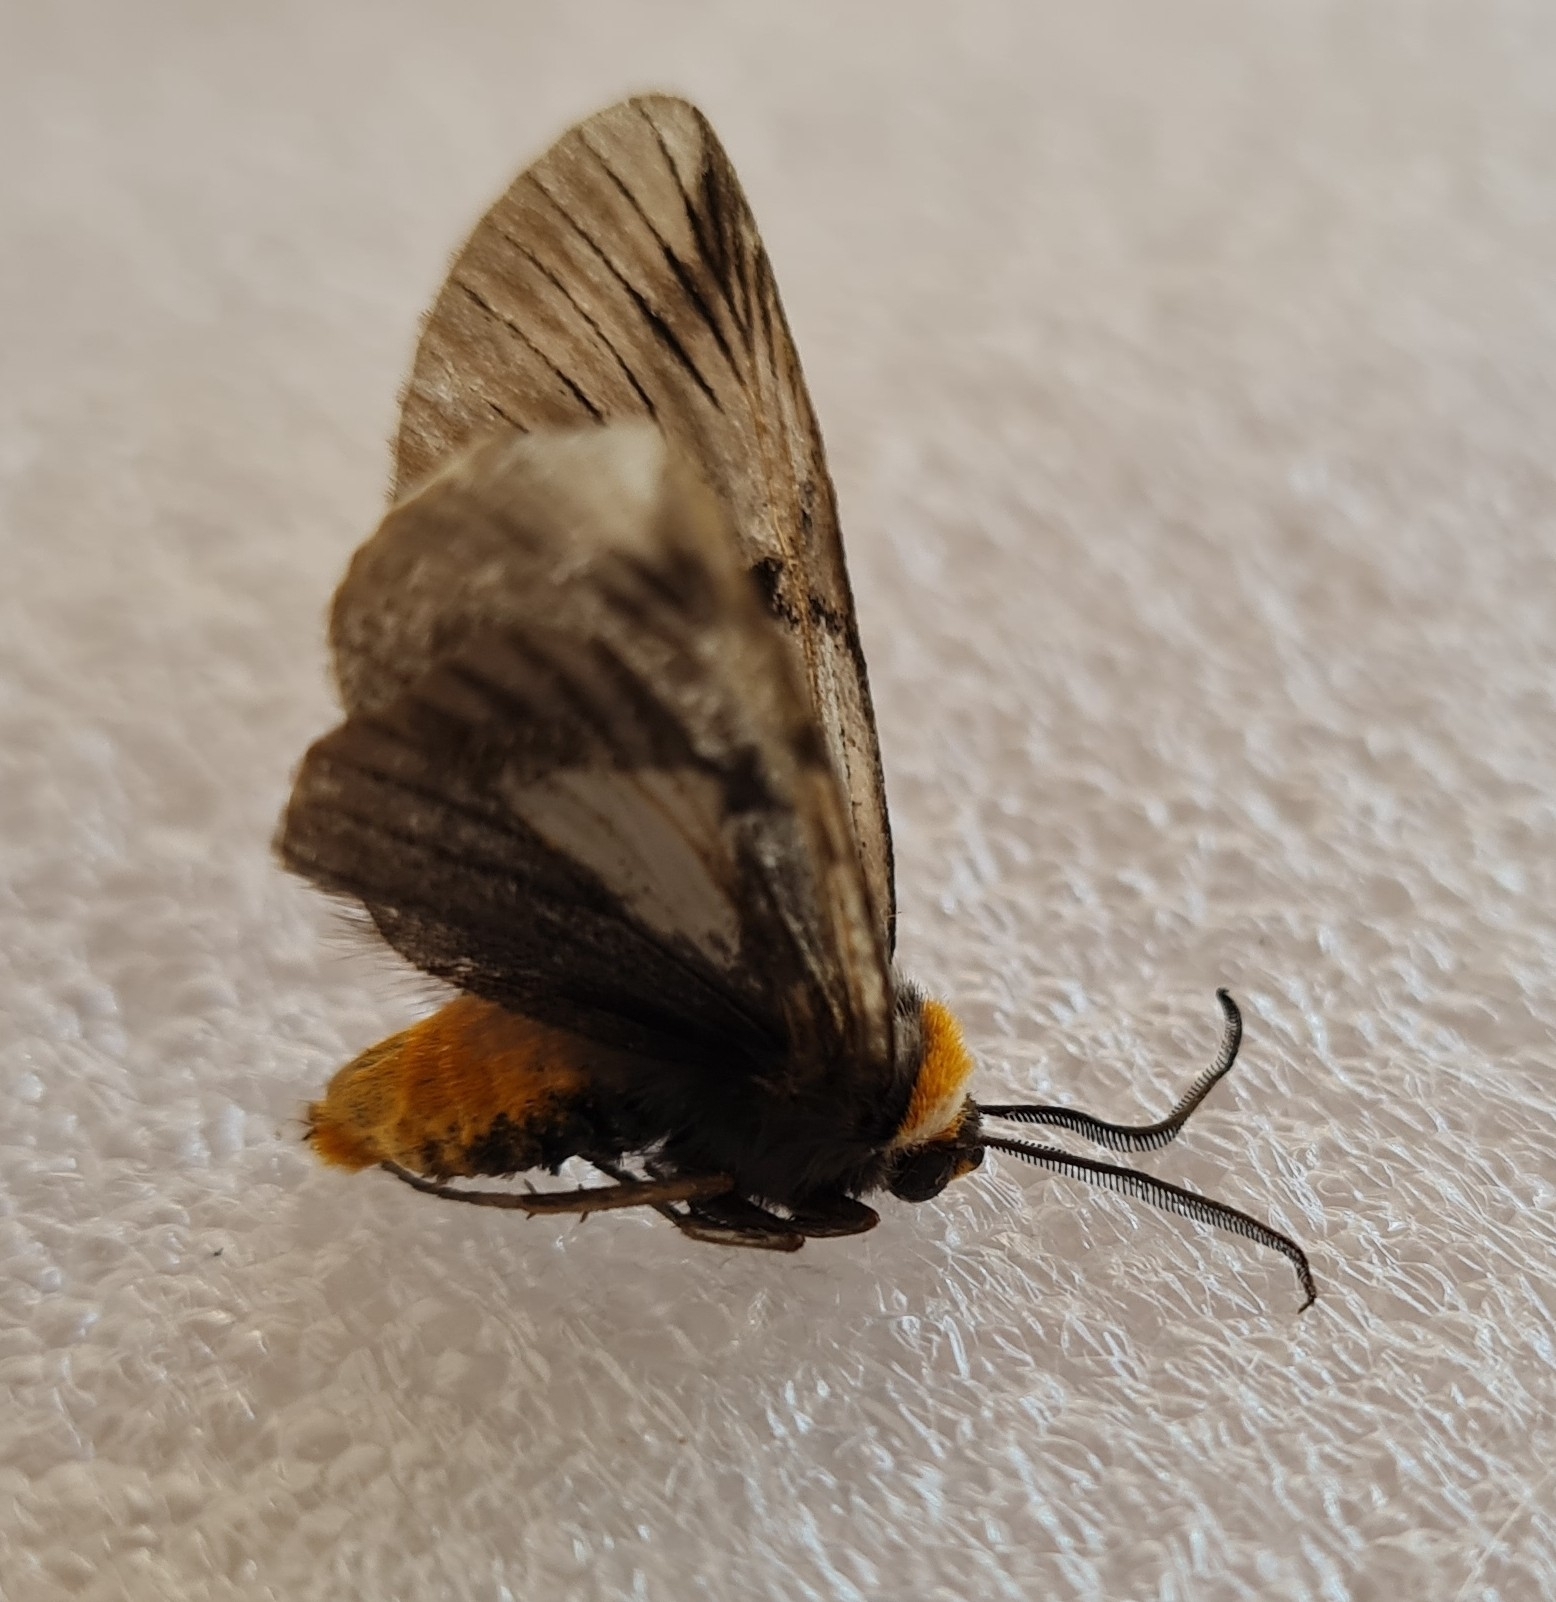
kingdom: Animalia
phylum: Arthropoda
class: Insecta
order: Lepidoptera
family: Noctuidae
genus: Oxythaphora
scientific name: Oxythaphora delta
